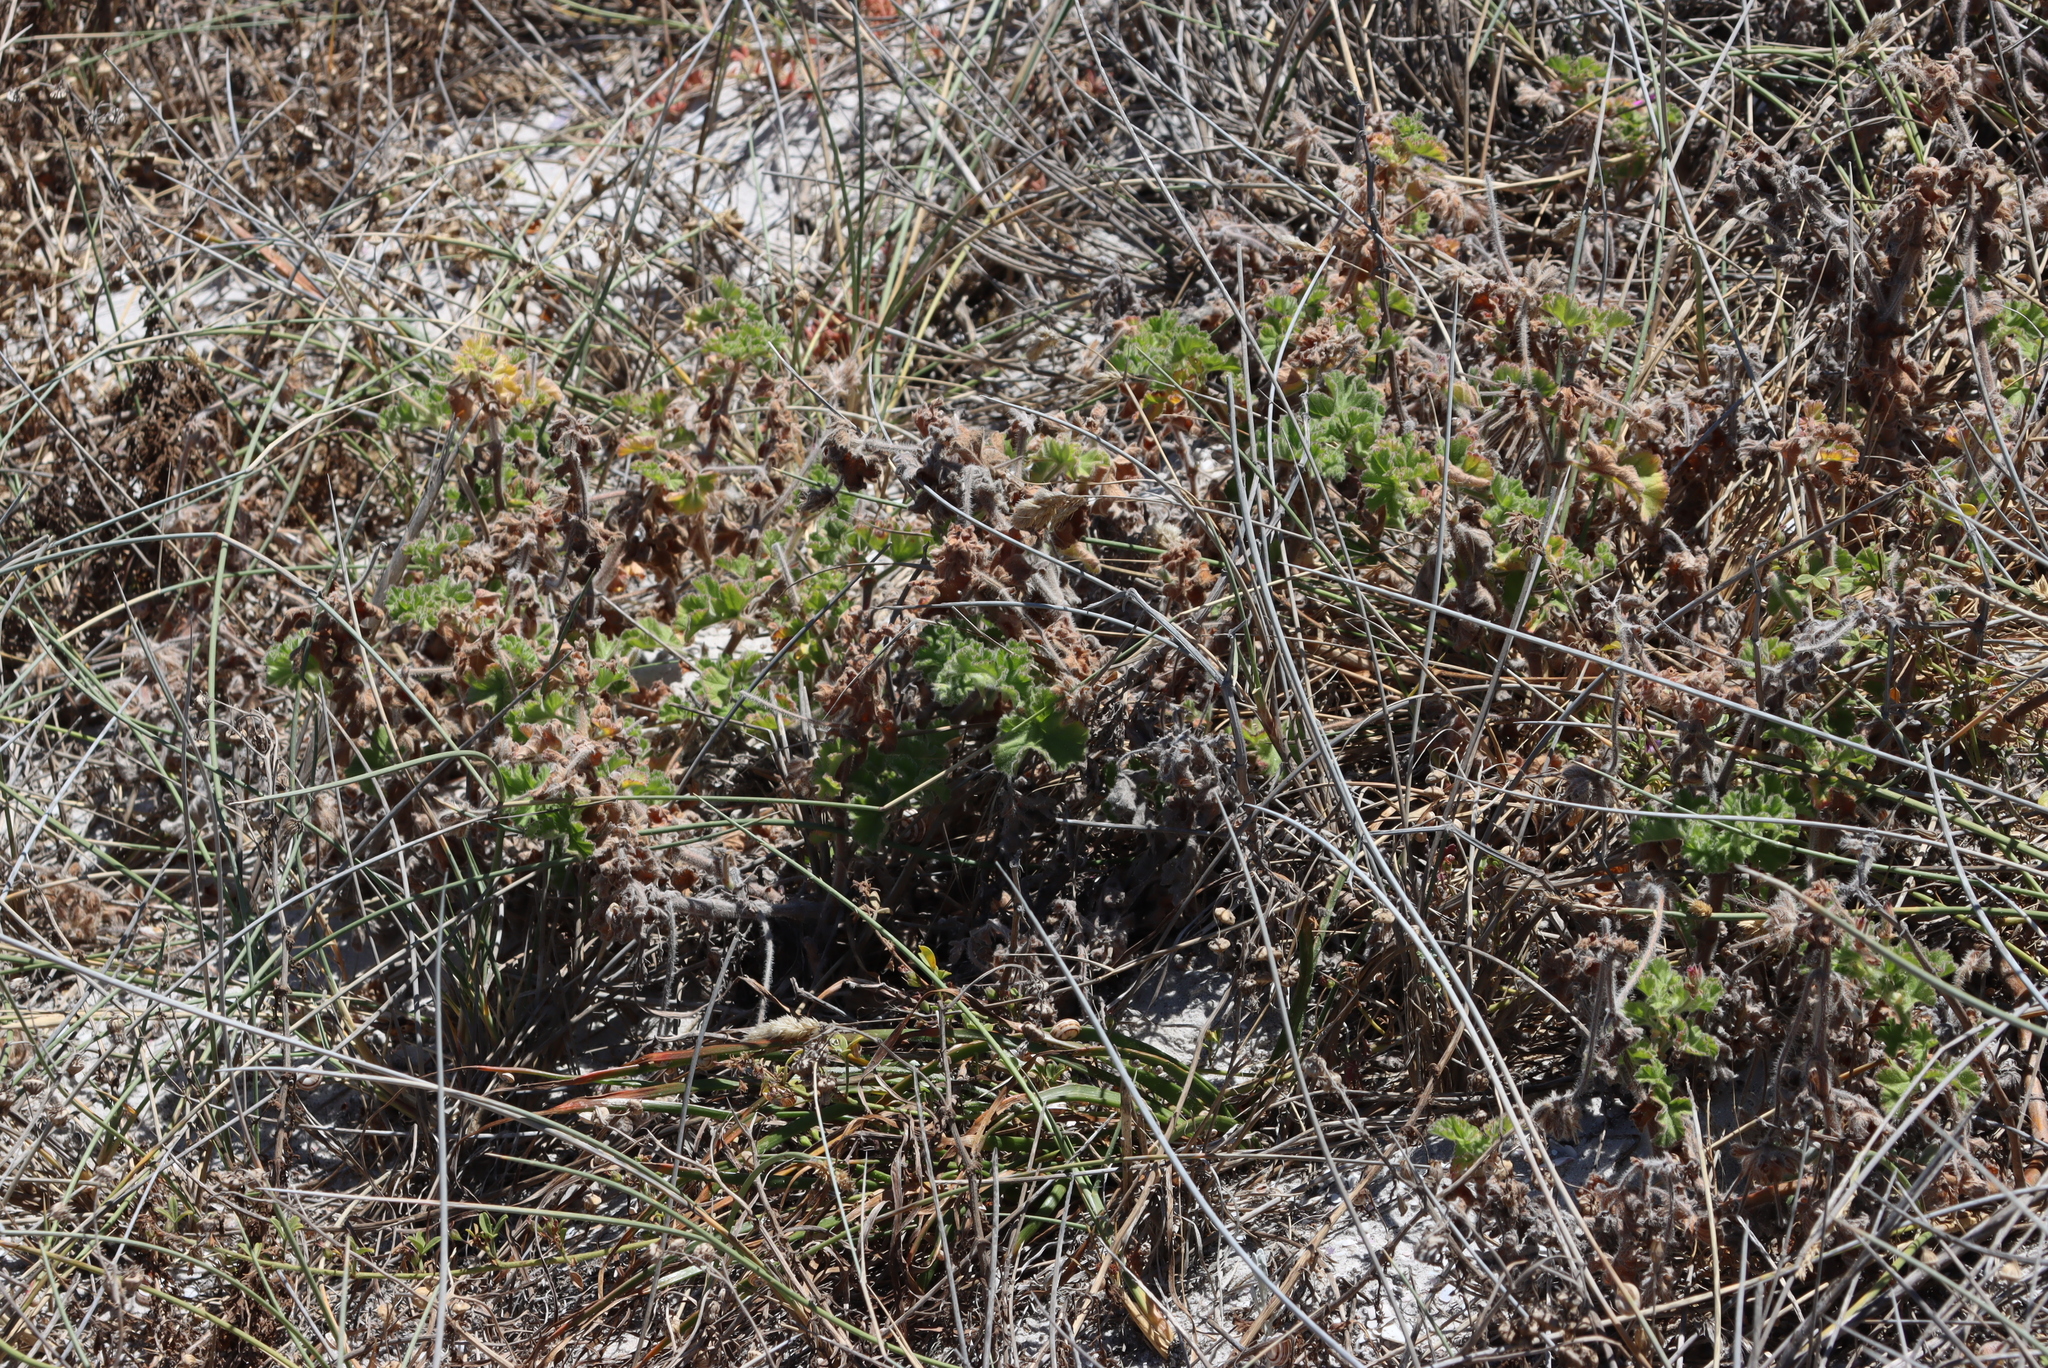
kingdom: Plantae
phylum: Tracheophyta
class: Magnoliopsida
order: Geraniales
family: Geraniaceae
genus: Pelargonium
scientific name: Pelargonium capitatum
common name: Rose scented geranium
